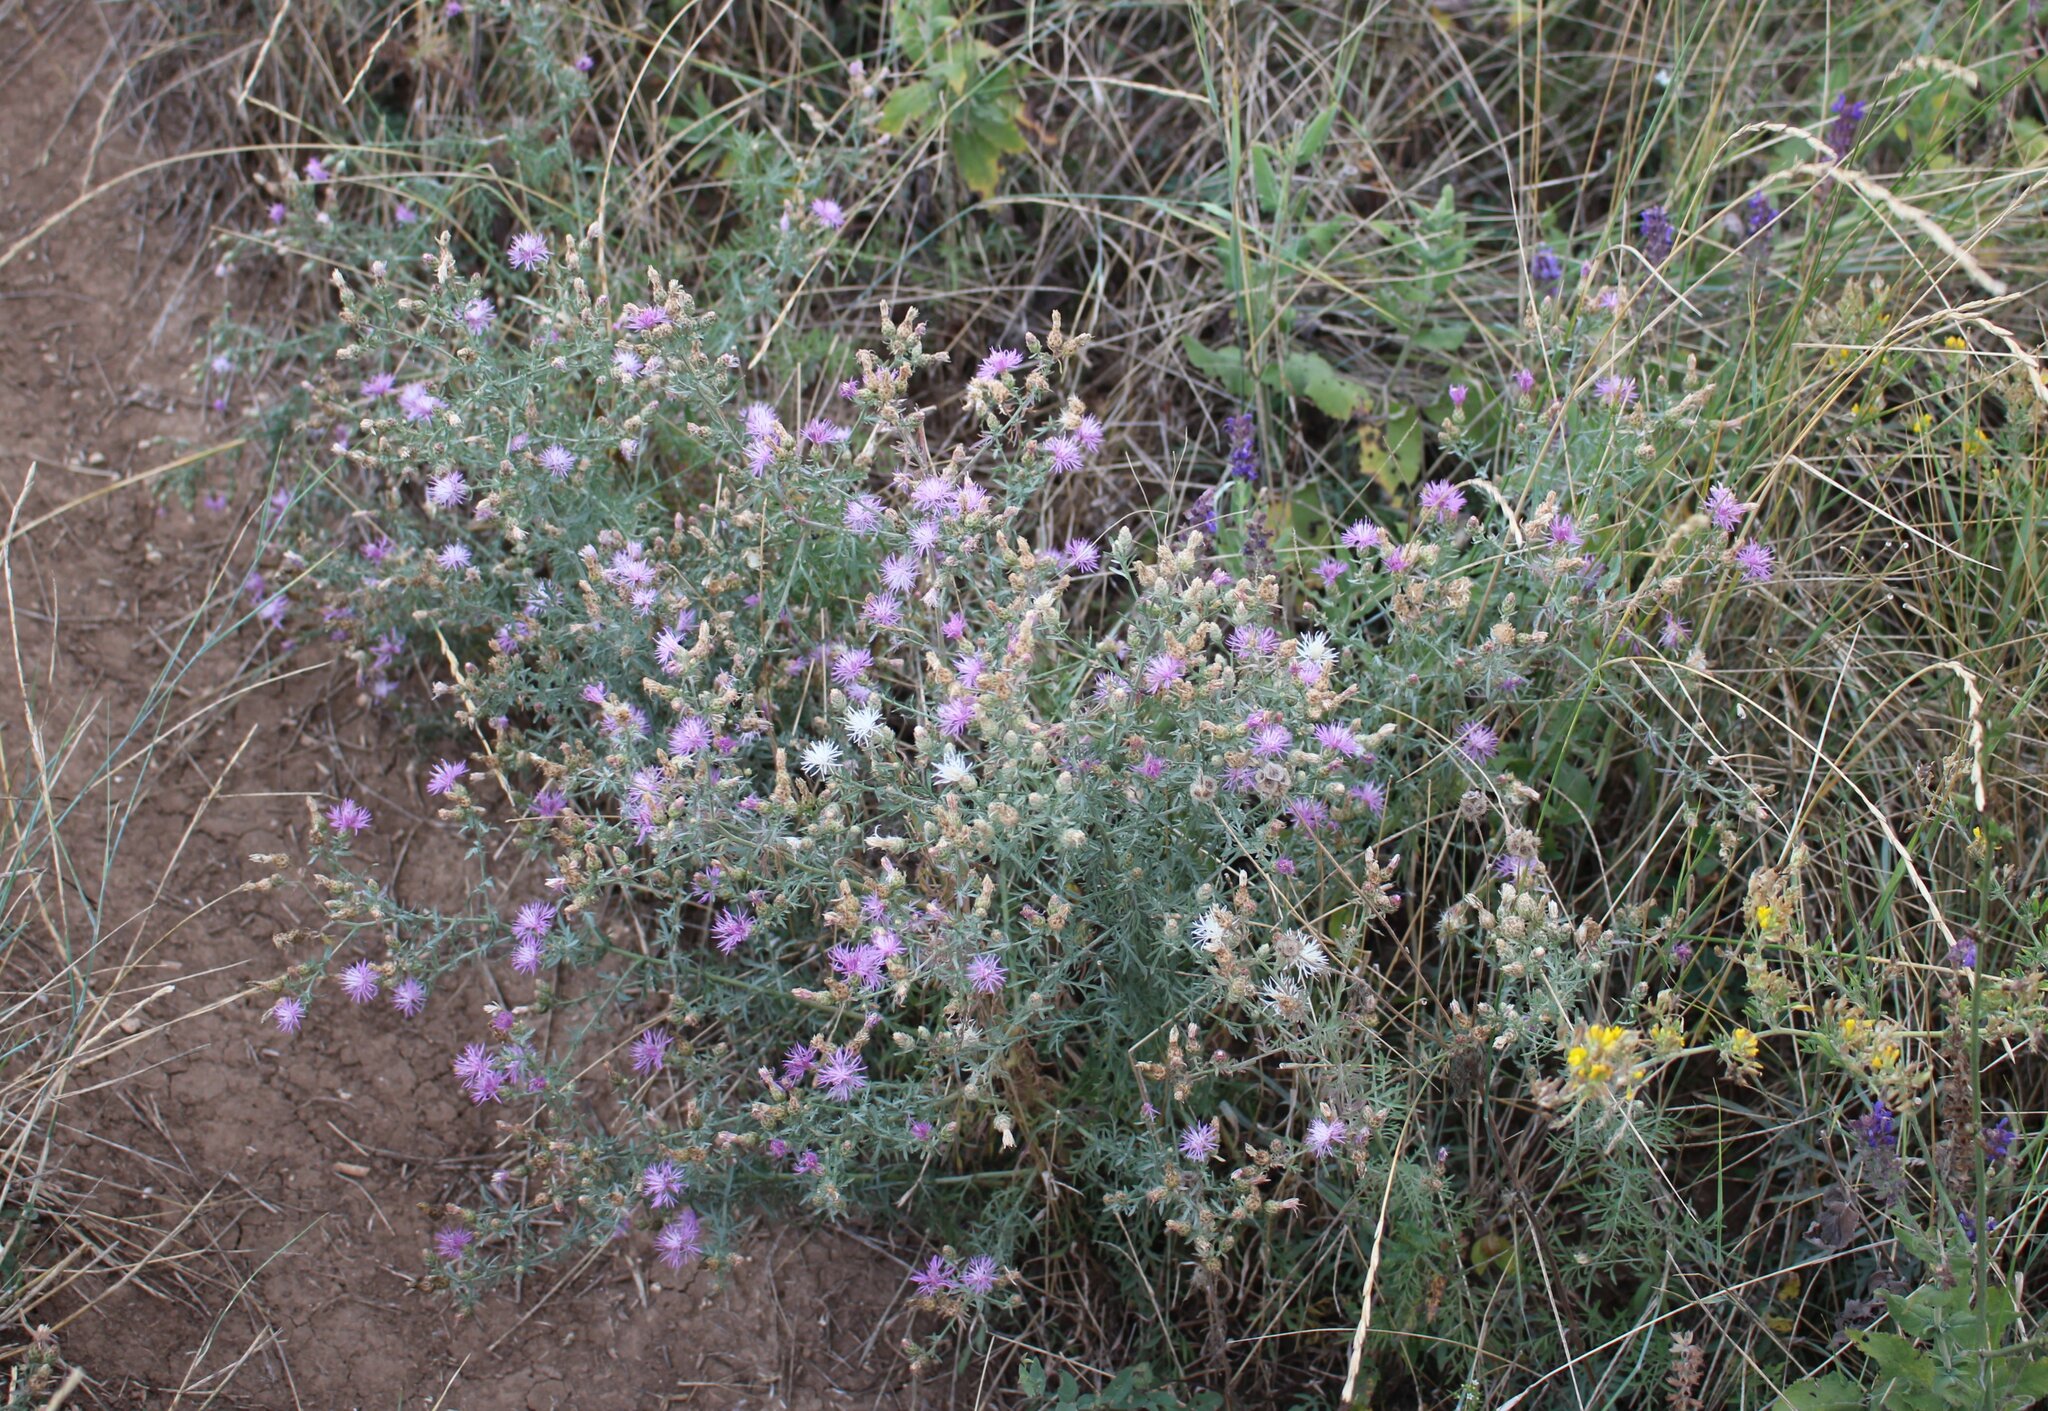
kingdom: Plantae
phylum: Tracheophyta
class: Magnoliopsida
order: Asterales
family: Asteraceae
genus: Centaurea
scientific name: Centaurea diffusa
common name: Diffuse knapweed
